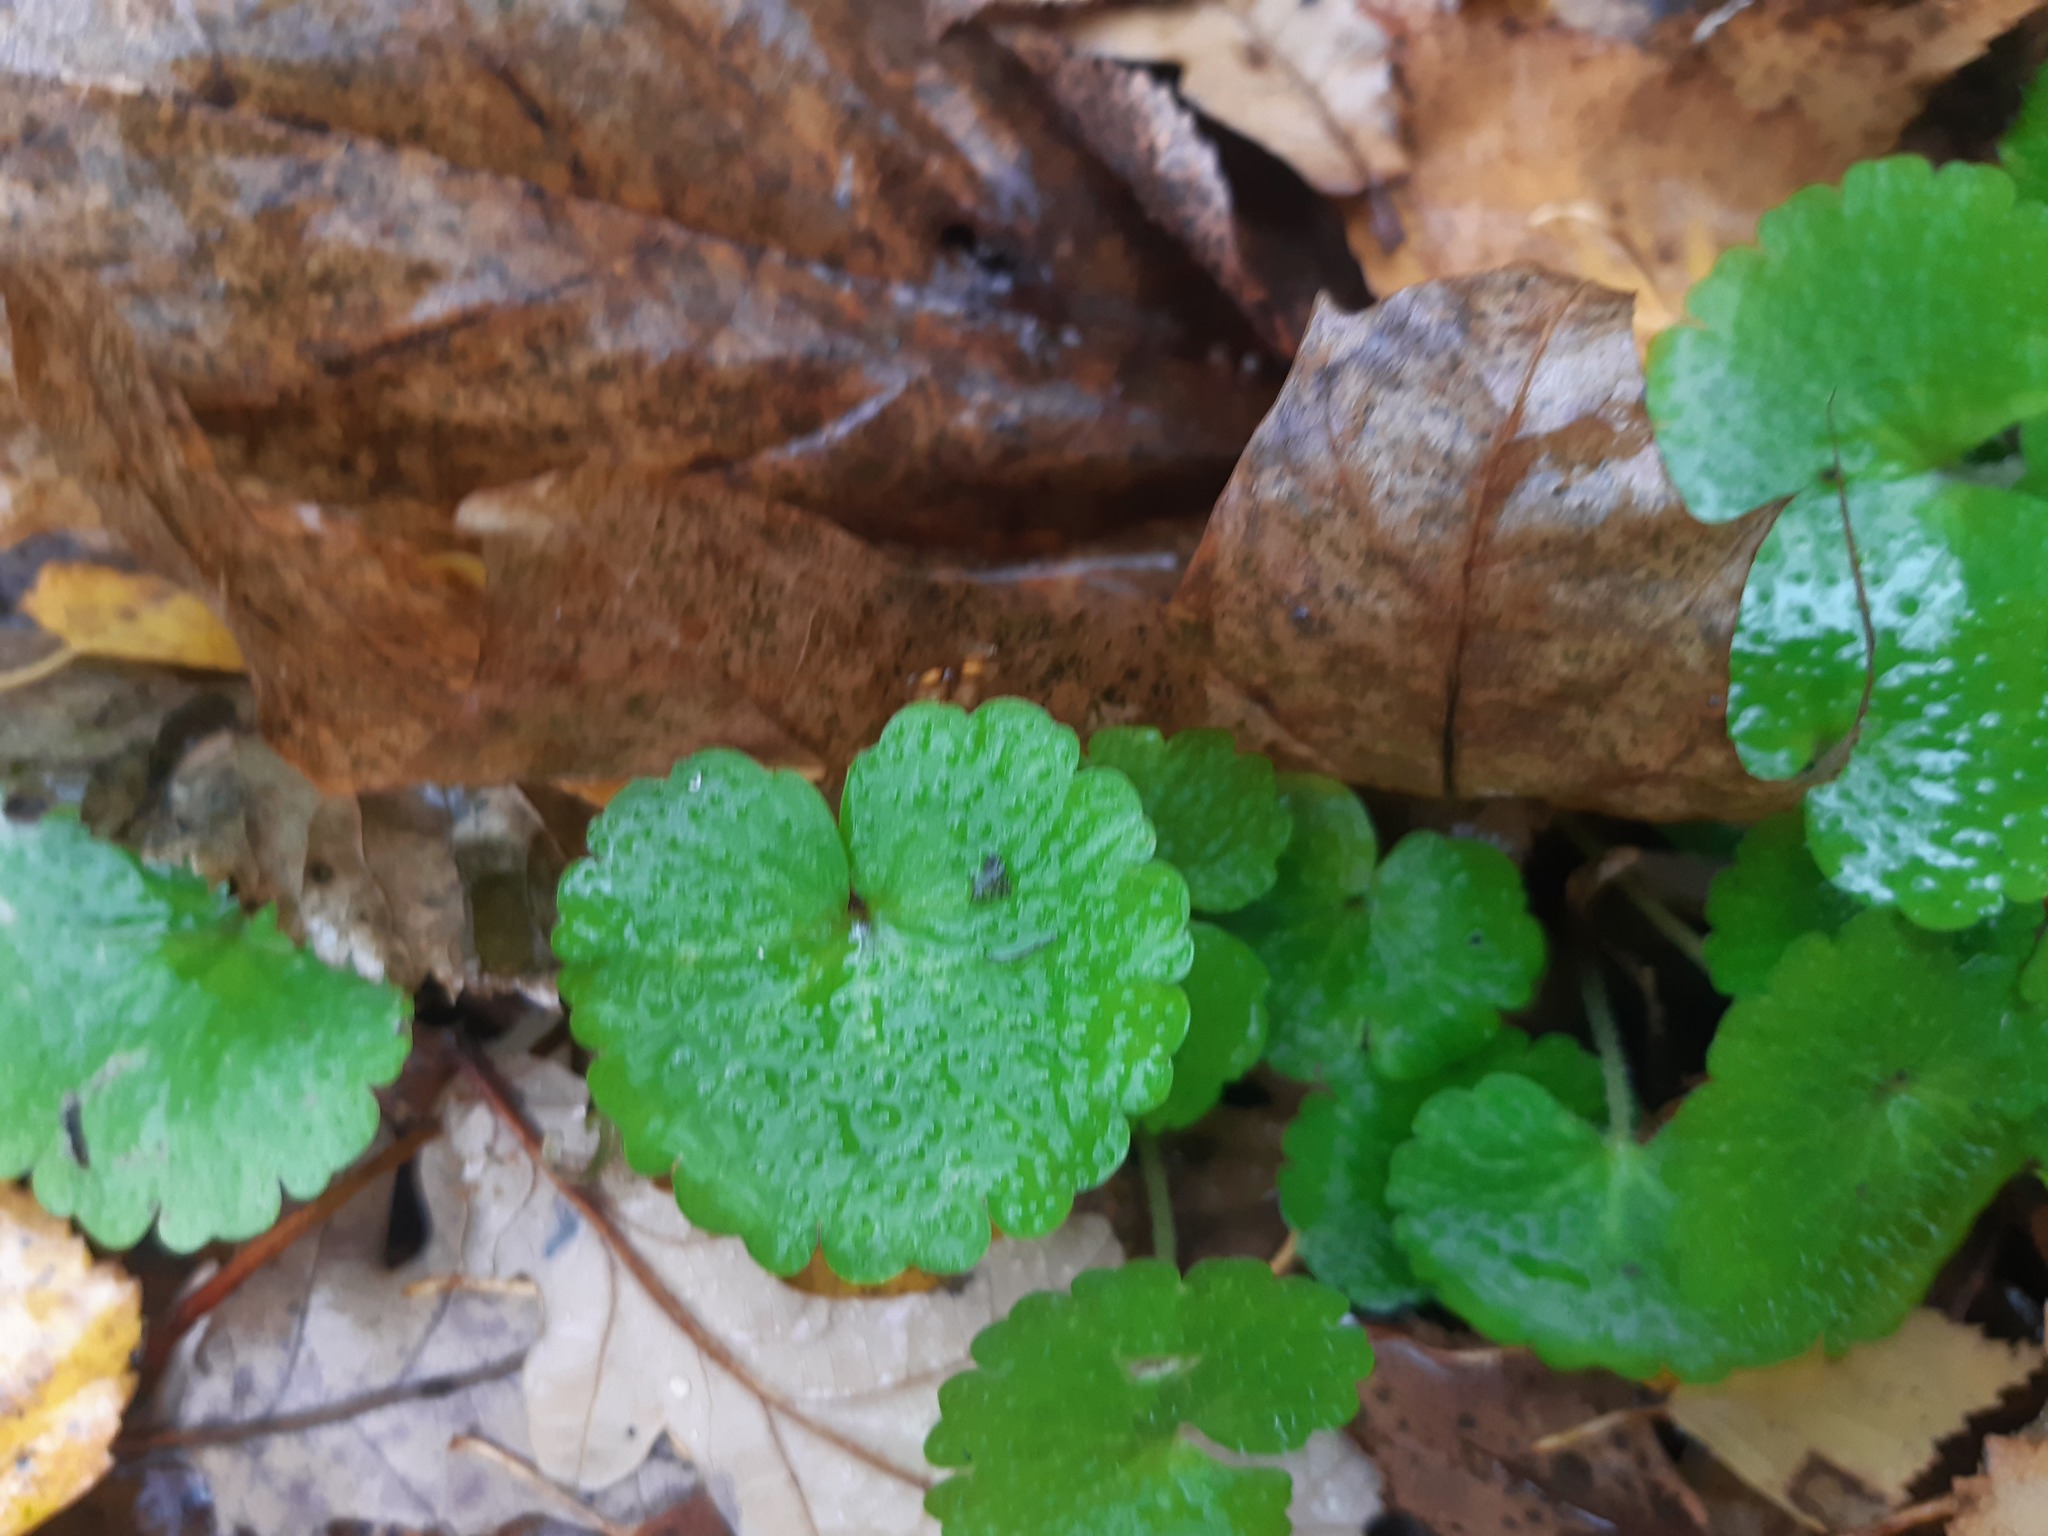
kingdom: Plantae
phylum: Tracheophyta
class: Magnoliopsida
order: Saxifragales
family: Saxifragaceae
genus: Chrysosplenium
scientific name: Chrysosplenium alternifolium
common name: Alternate-leaved golden-saxifrage
